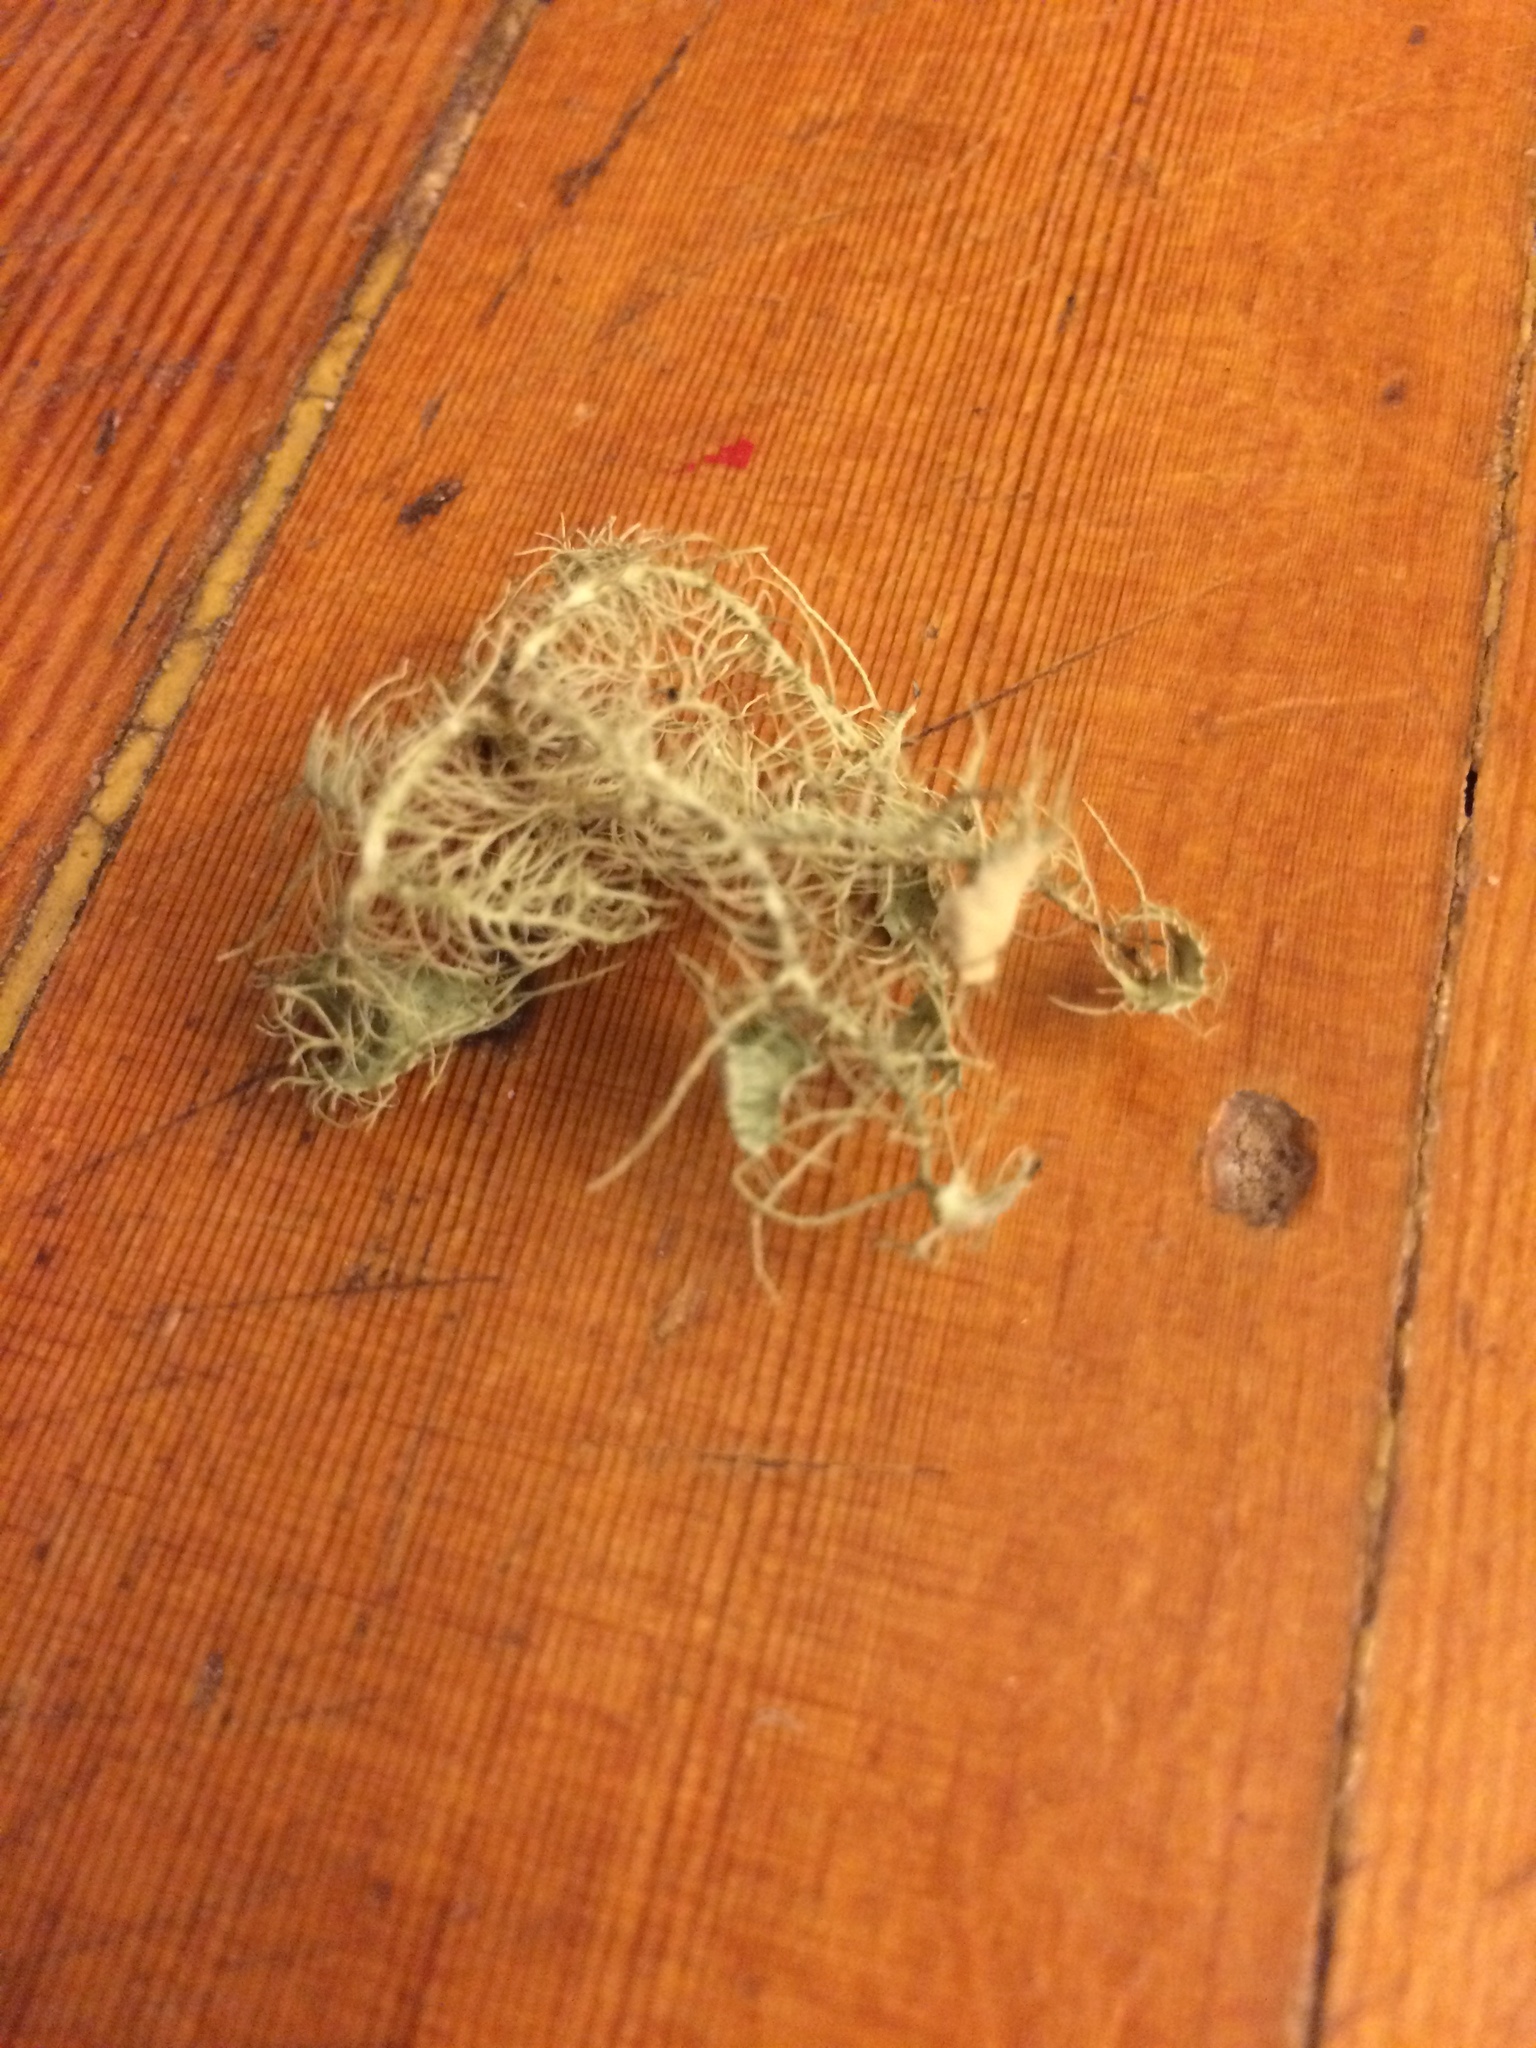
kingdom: Fungi
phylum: Ascomycota
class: Lecanoromycetes
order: Lecanorales
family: Parmeliaceae
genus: Usnea
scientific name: Usnea strigosa
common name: Bushy beard lichen
